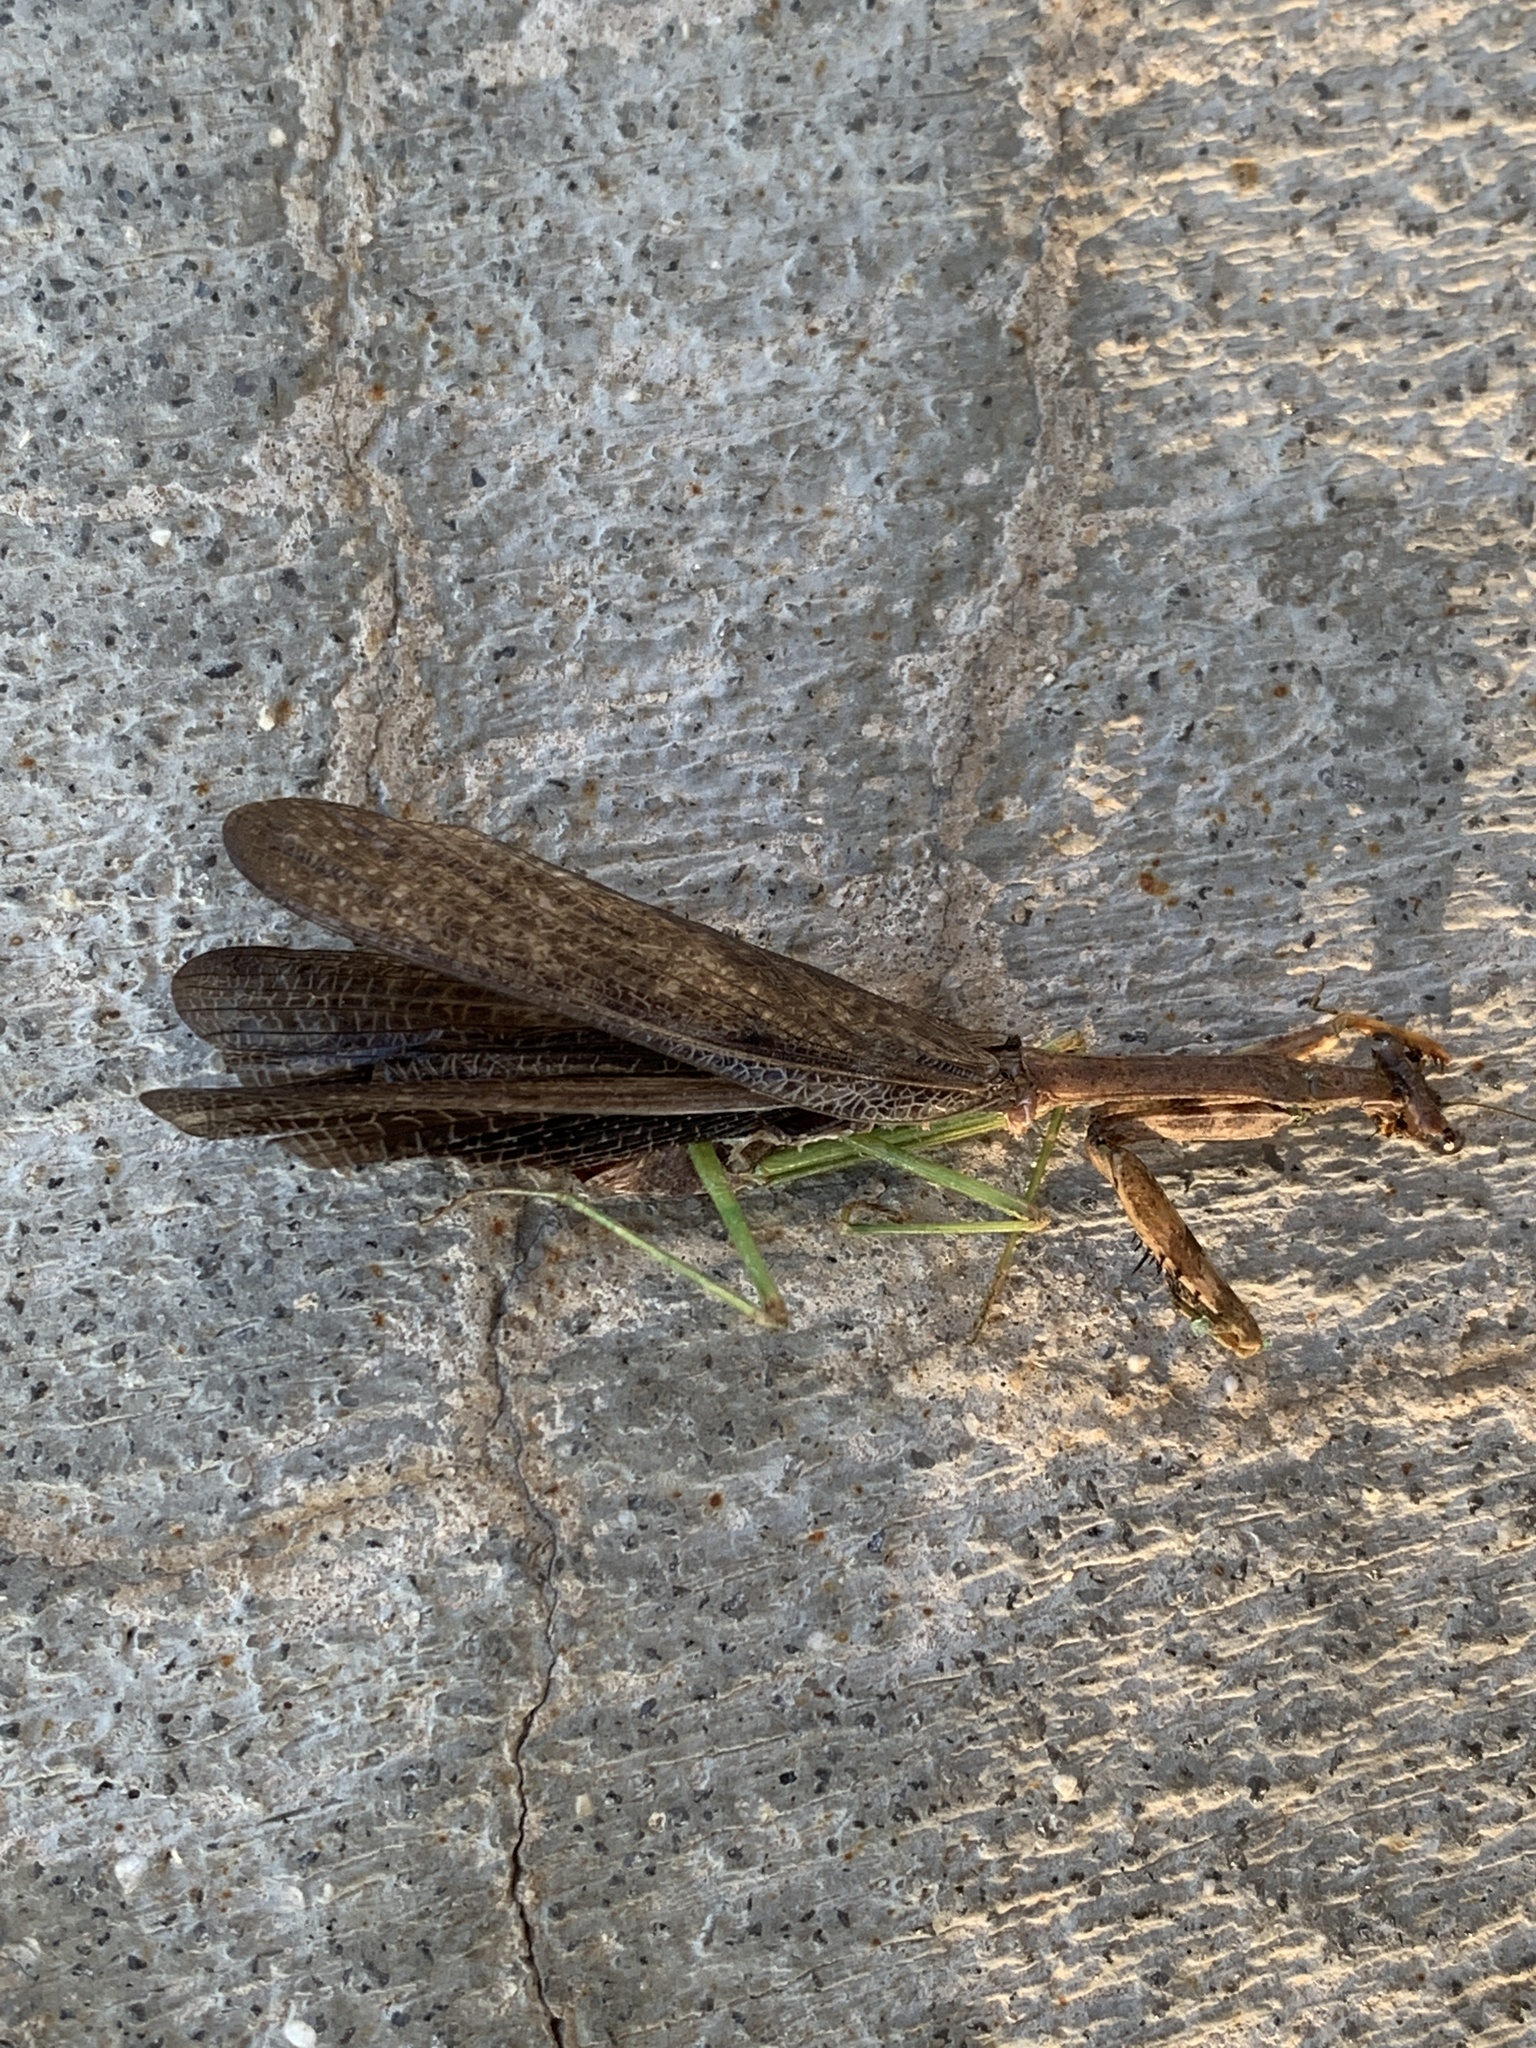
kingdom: Animalia
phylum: Arthropoda
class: Insecta
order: Mantodea
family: Mantidae
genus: Stagmomantis
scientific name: Stagmomantis carolina
